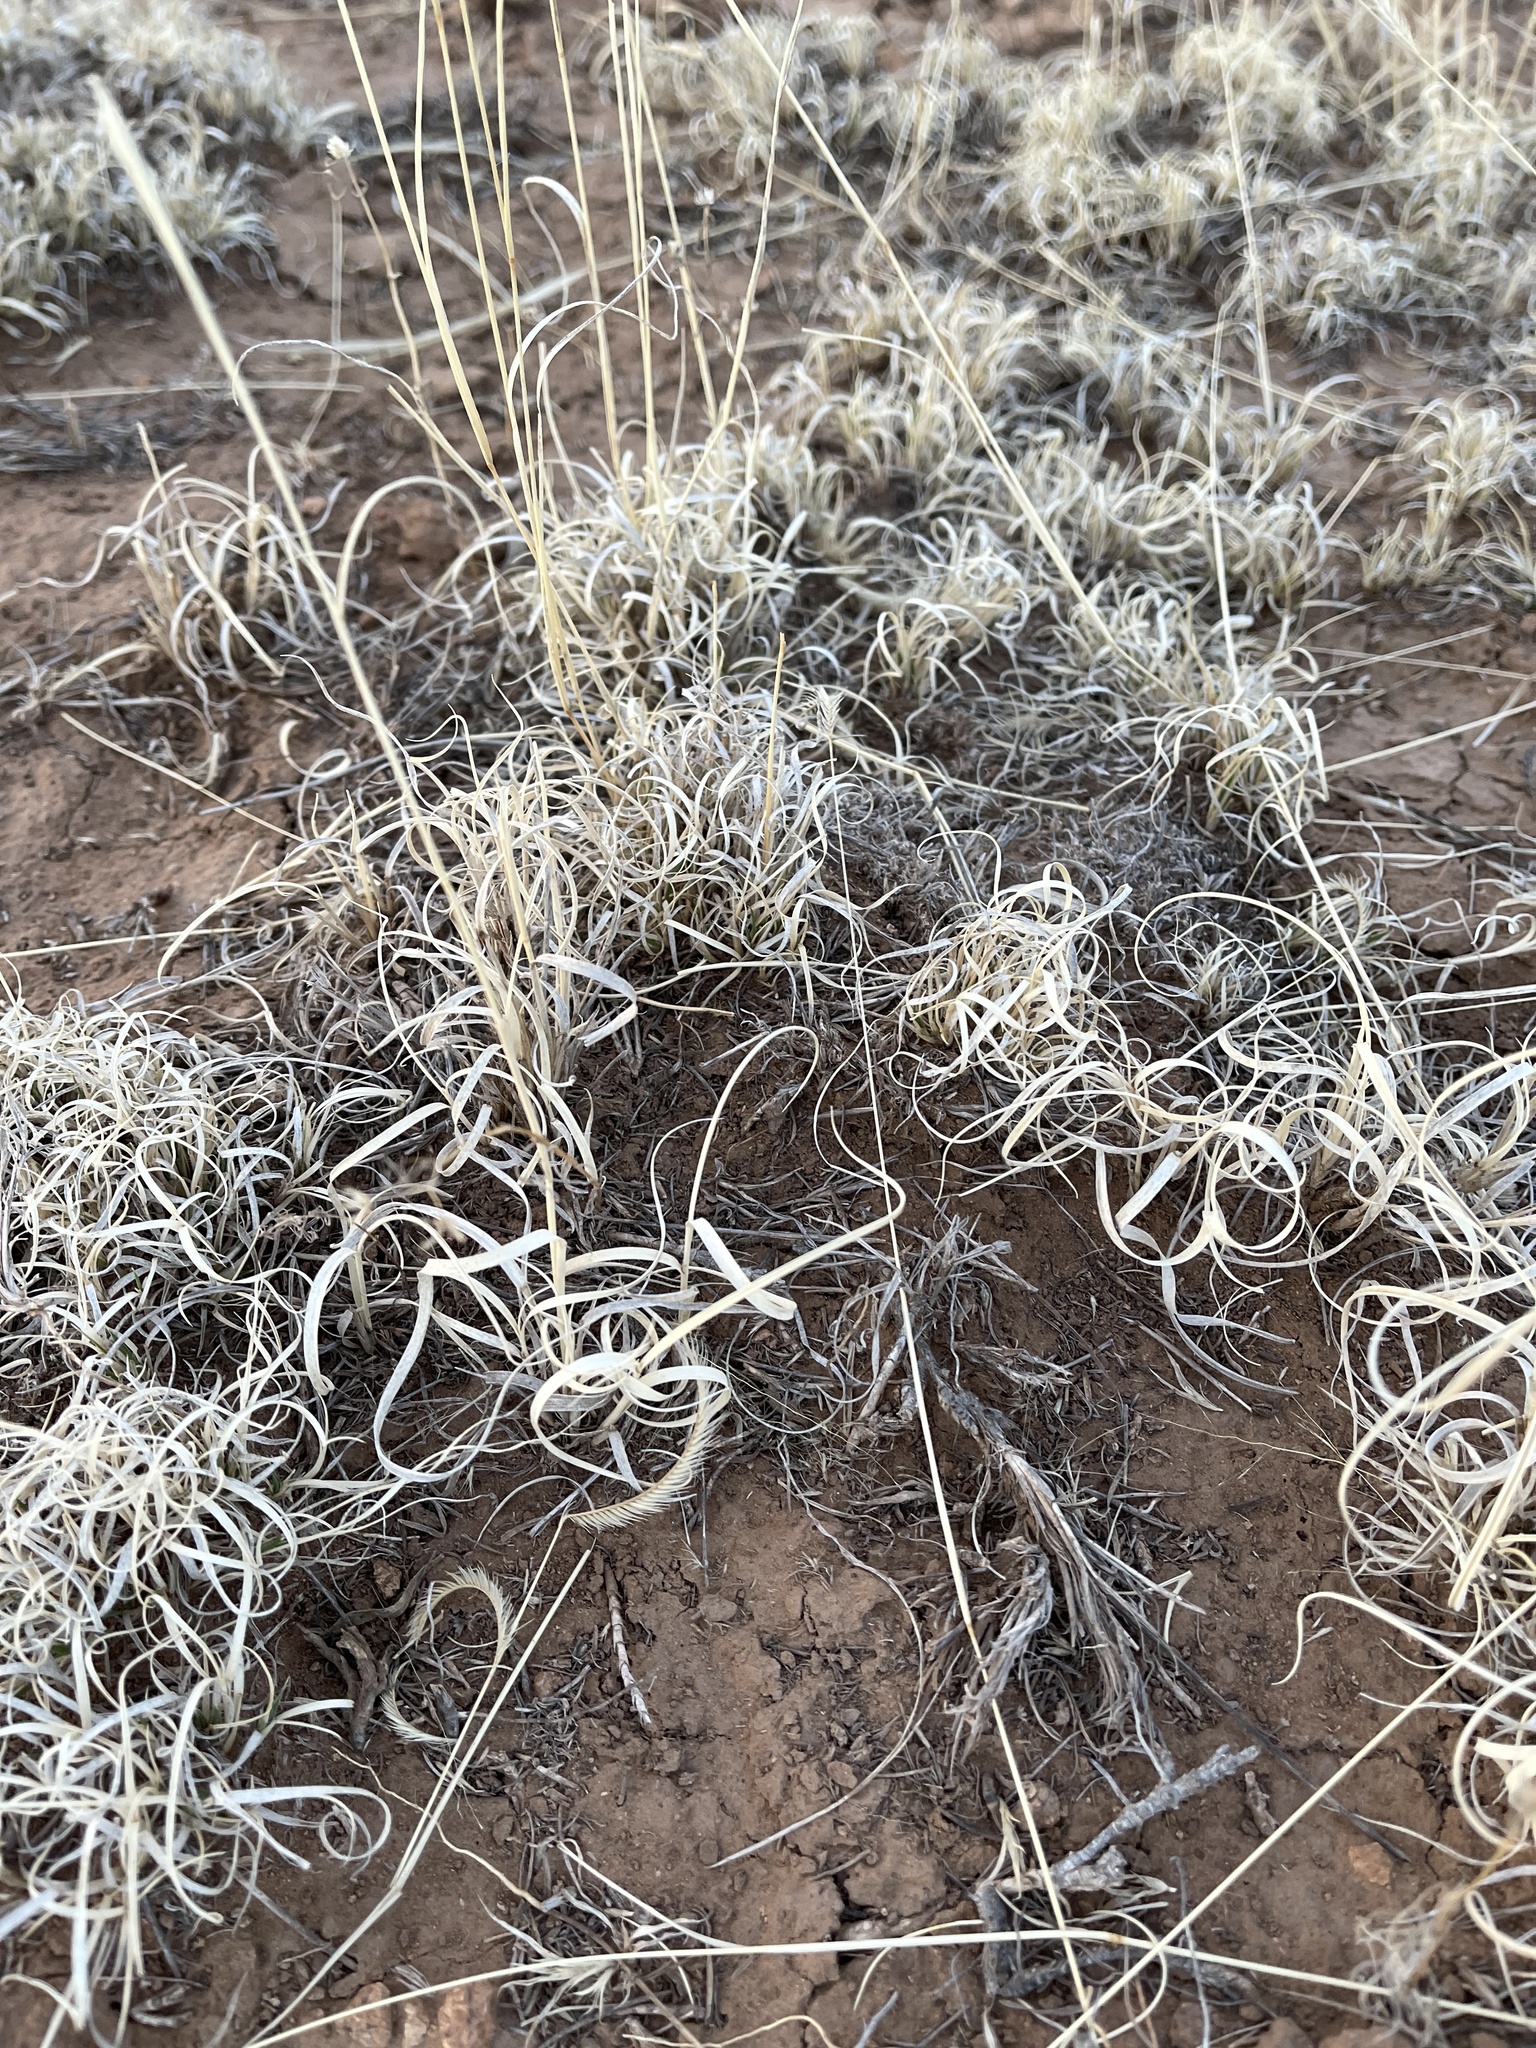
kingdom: Plantae
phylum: Tracheophyta
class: Liliopsida
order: Poales
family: Poaceae
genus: Bouteloua
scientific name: Bouteloua gracilis
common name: Blue grama
